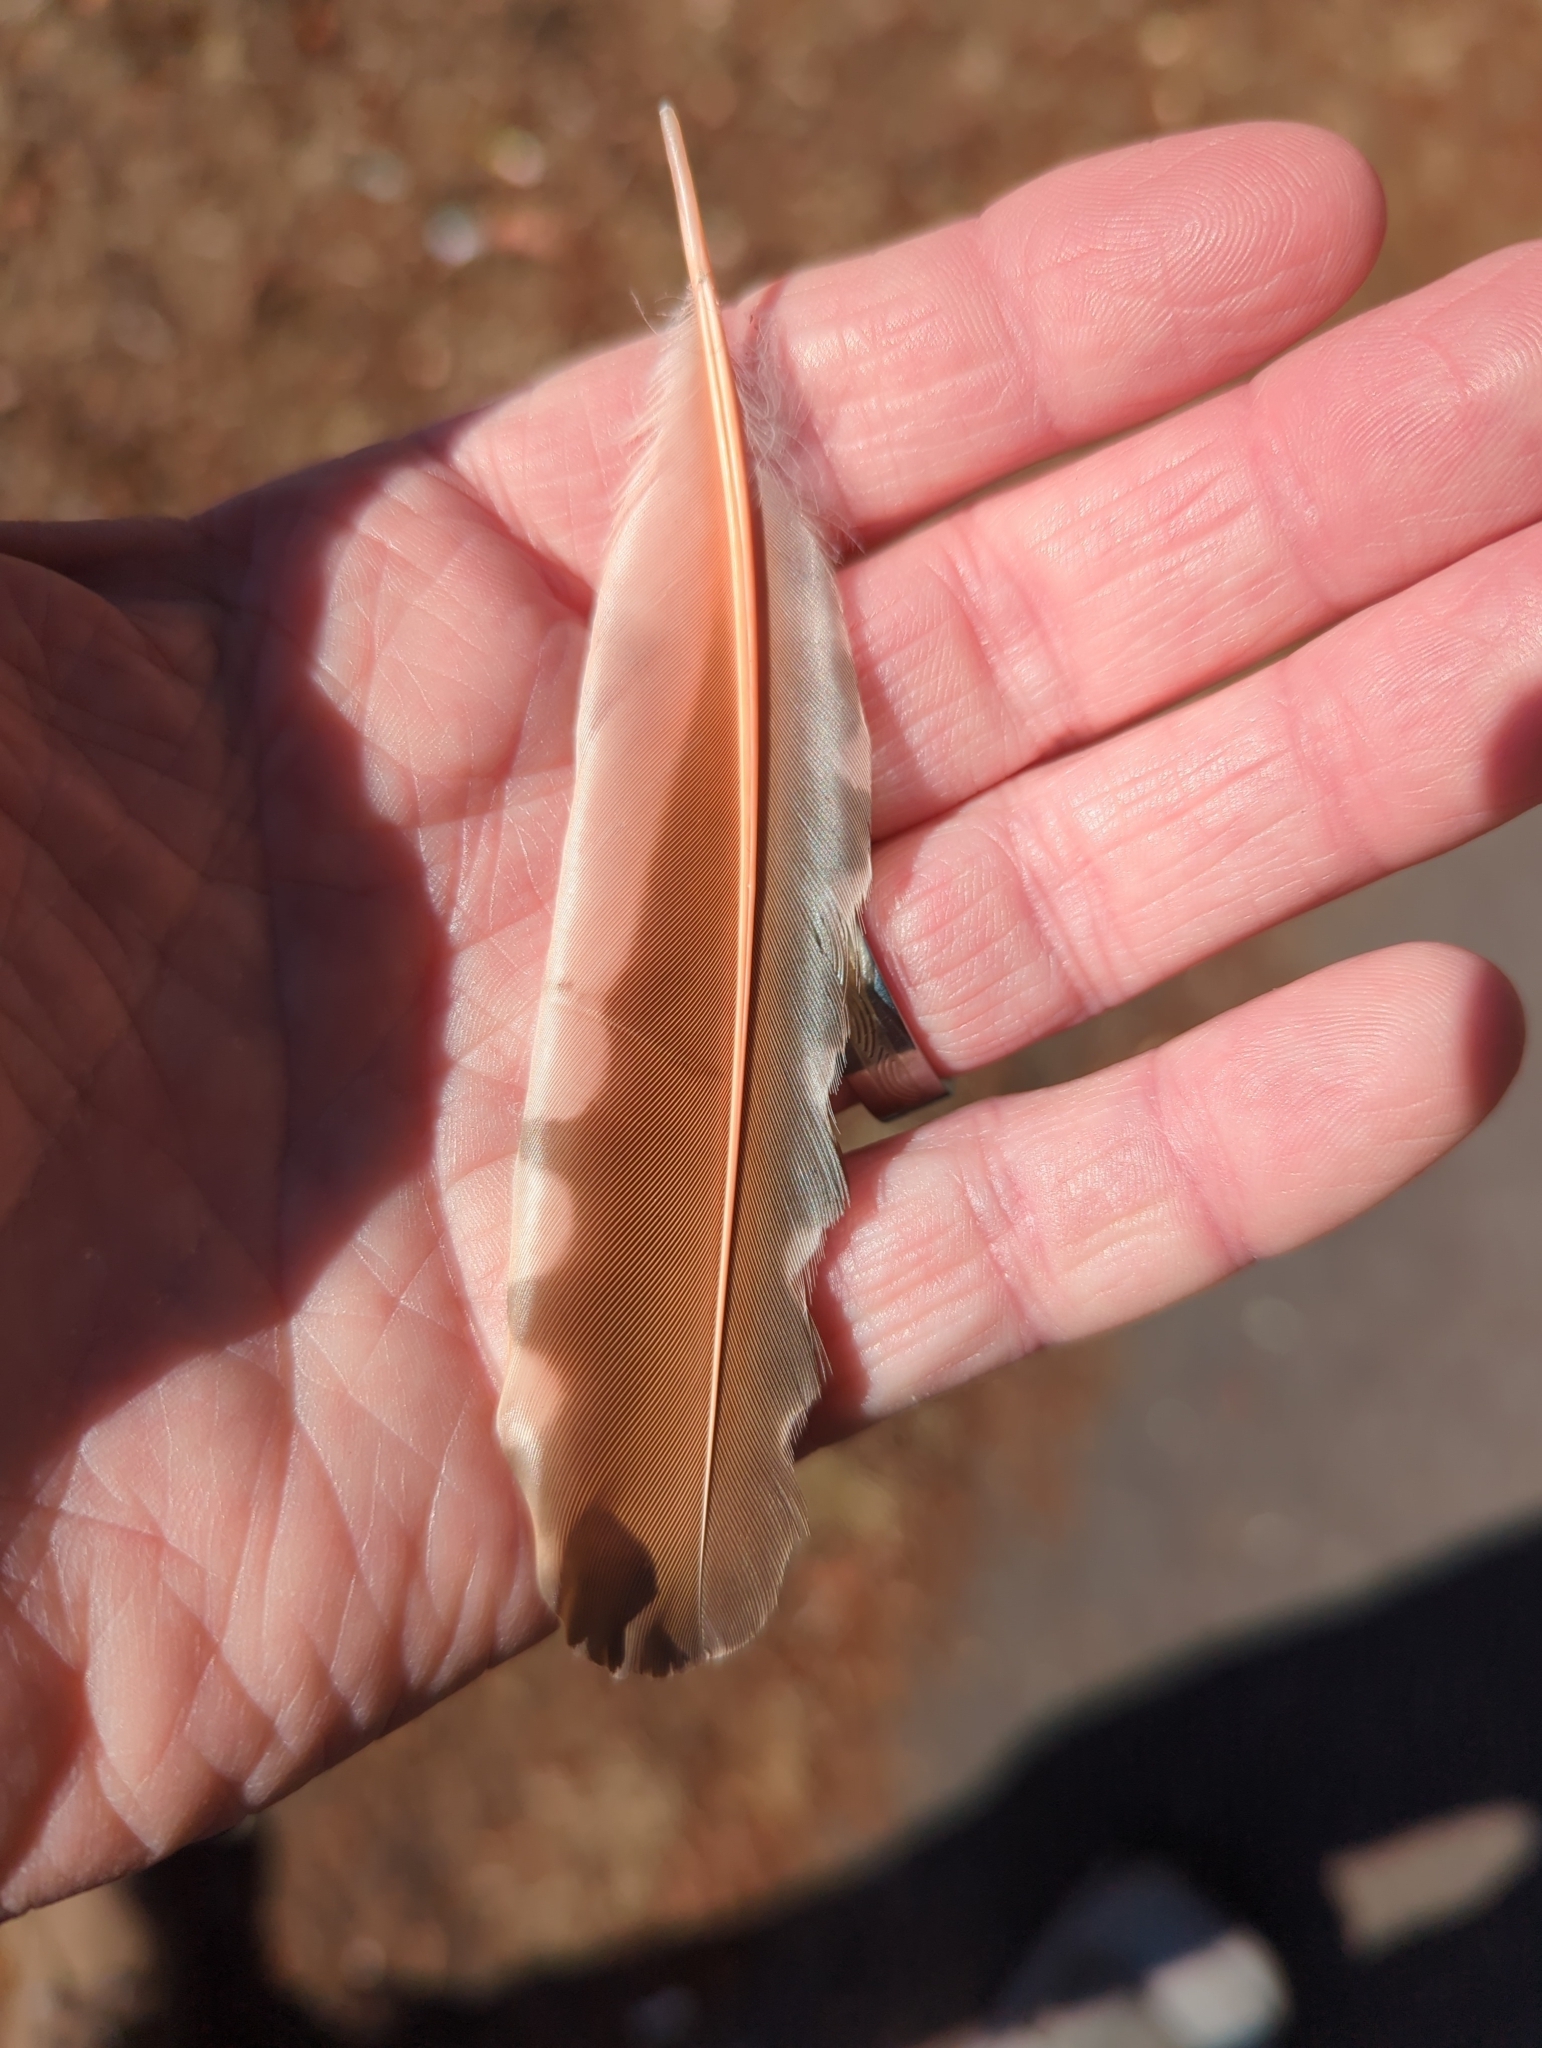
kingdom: Animalia
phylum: Chordata
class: Aves
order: Piciformes
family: Picidae
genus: Colaptes
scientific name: Colaptes auratus
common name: Northern flicker
